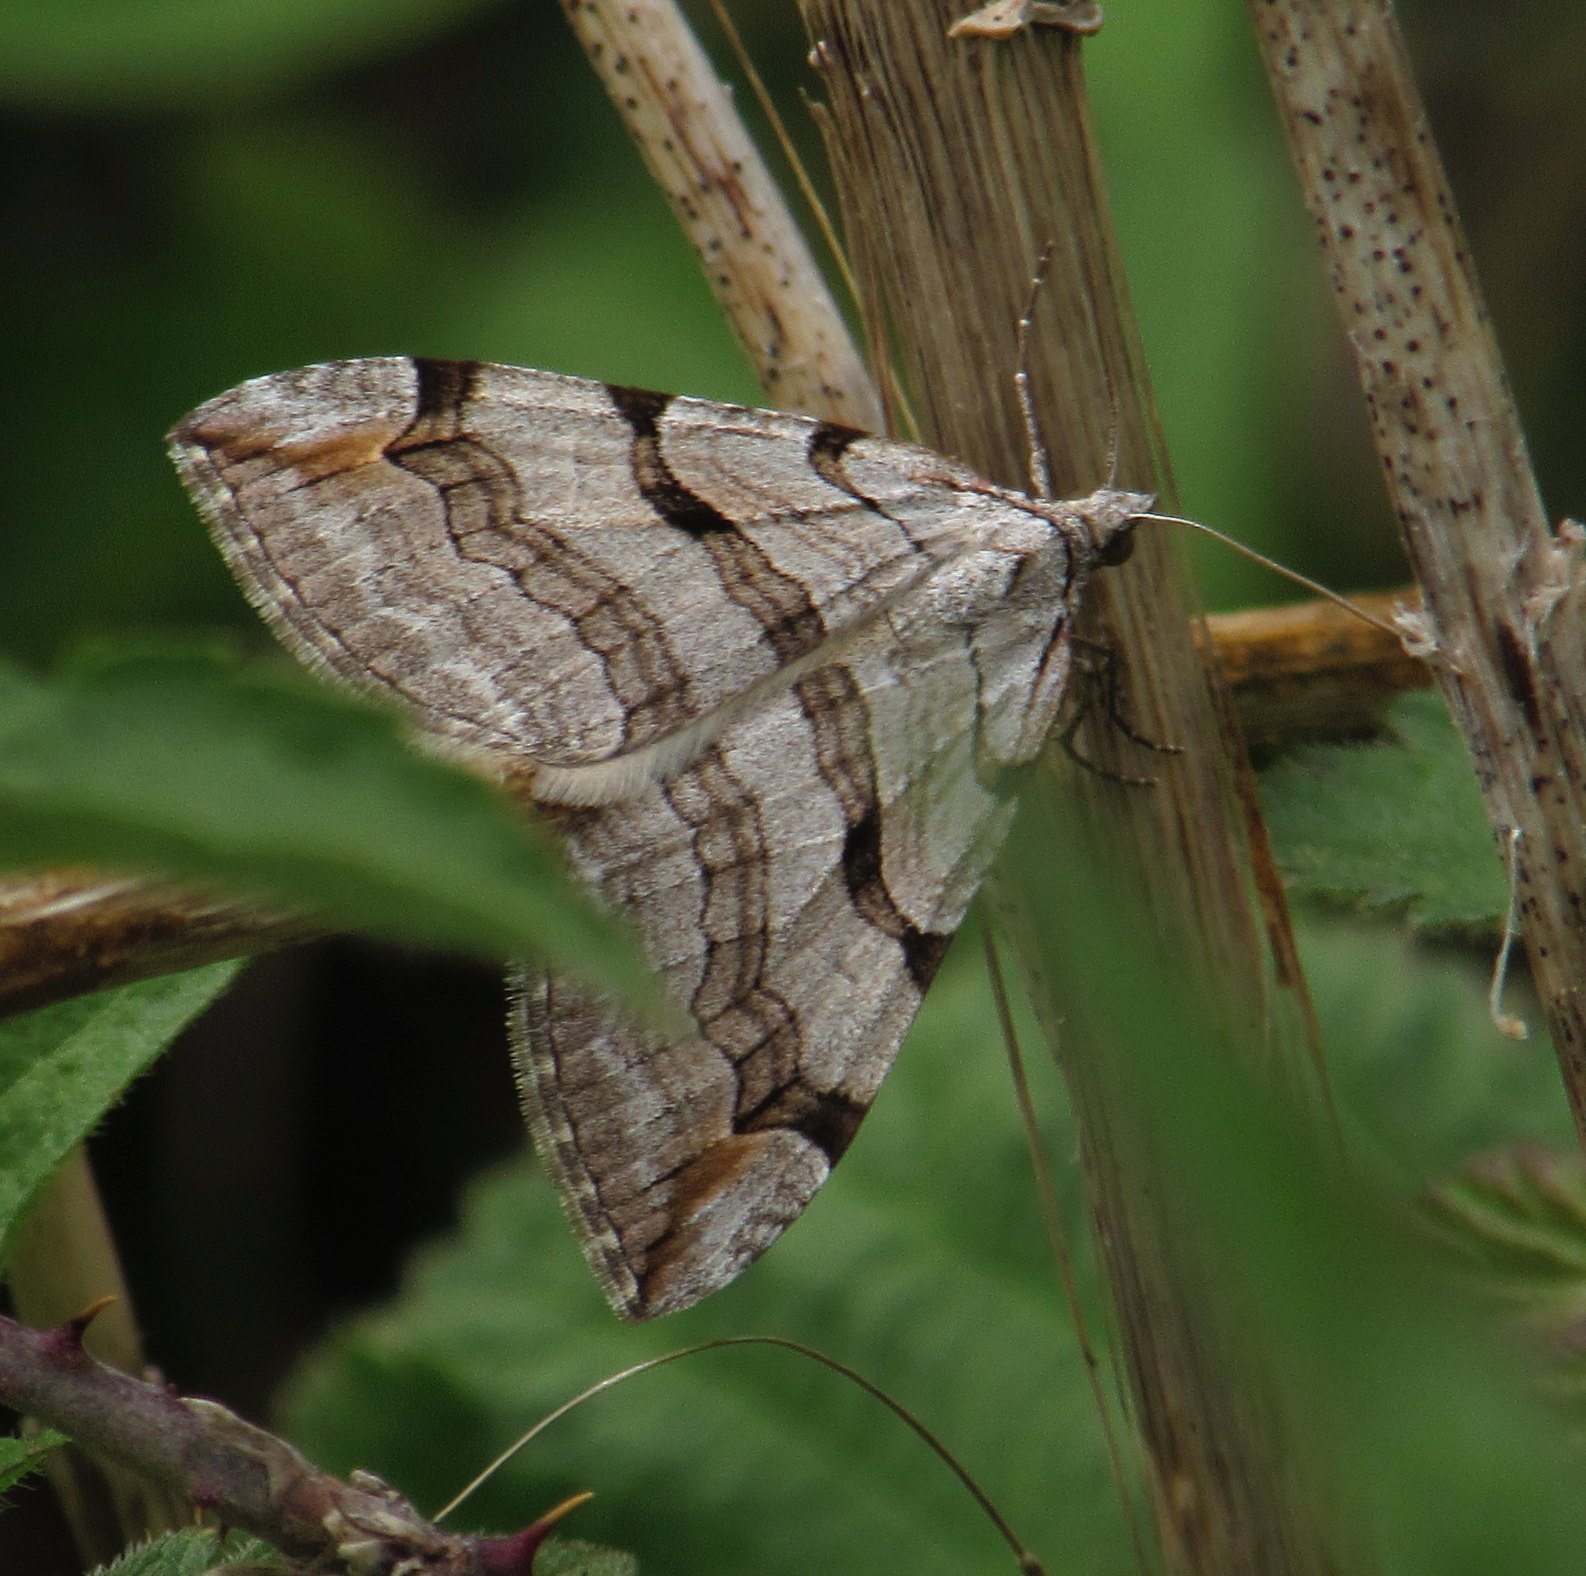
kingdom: Animalia
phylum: Arthropoda
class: Insecta
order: Lepidoptera
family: Geometridae
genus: Aplocera
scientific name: Aplocera plagiata
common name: Treble-bar
